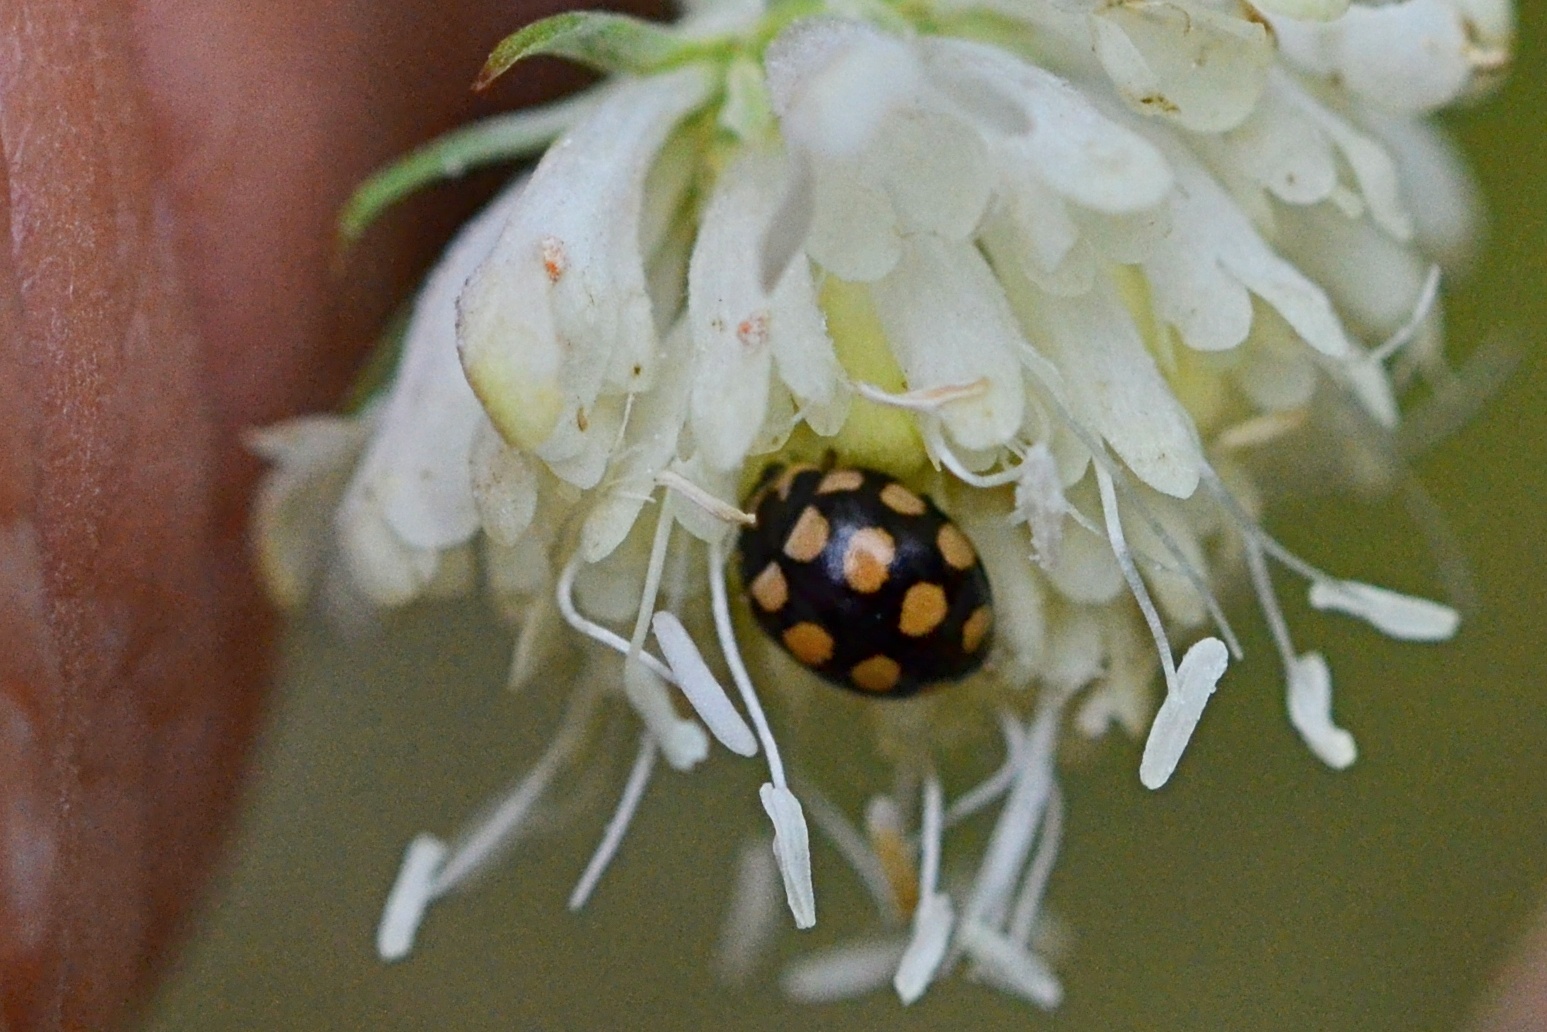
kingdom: Animalia
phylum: Arthropoda
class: Insecta
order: Coleoptera
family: Coccinellidae
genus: Coccinula
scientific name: Coccinula quatuordecimpustulata
